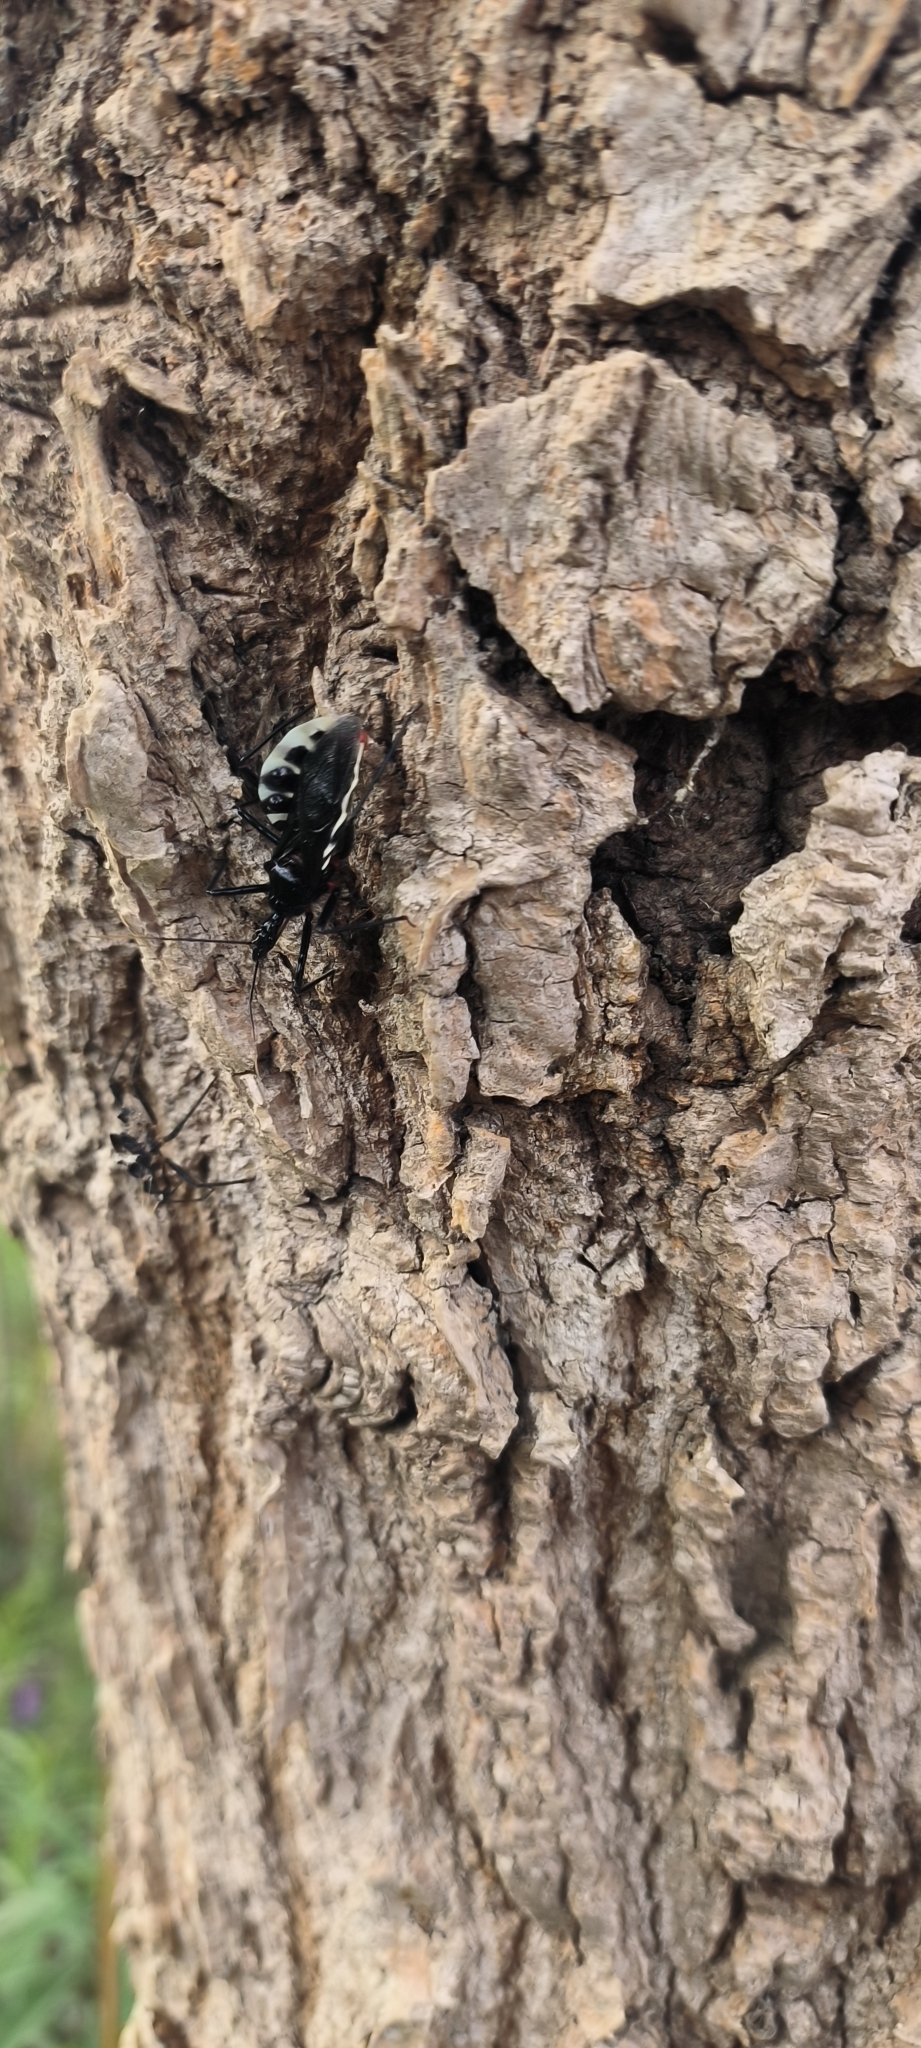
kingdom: Animalia
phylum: Arthropoda
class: Insecta
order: Hemiptera
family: Reduviidae
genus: Agriosphodrus
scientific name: Agriosphodrus dohrni
